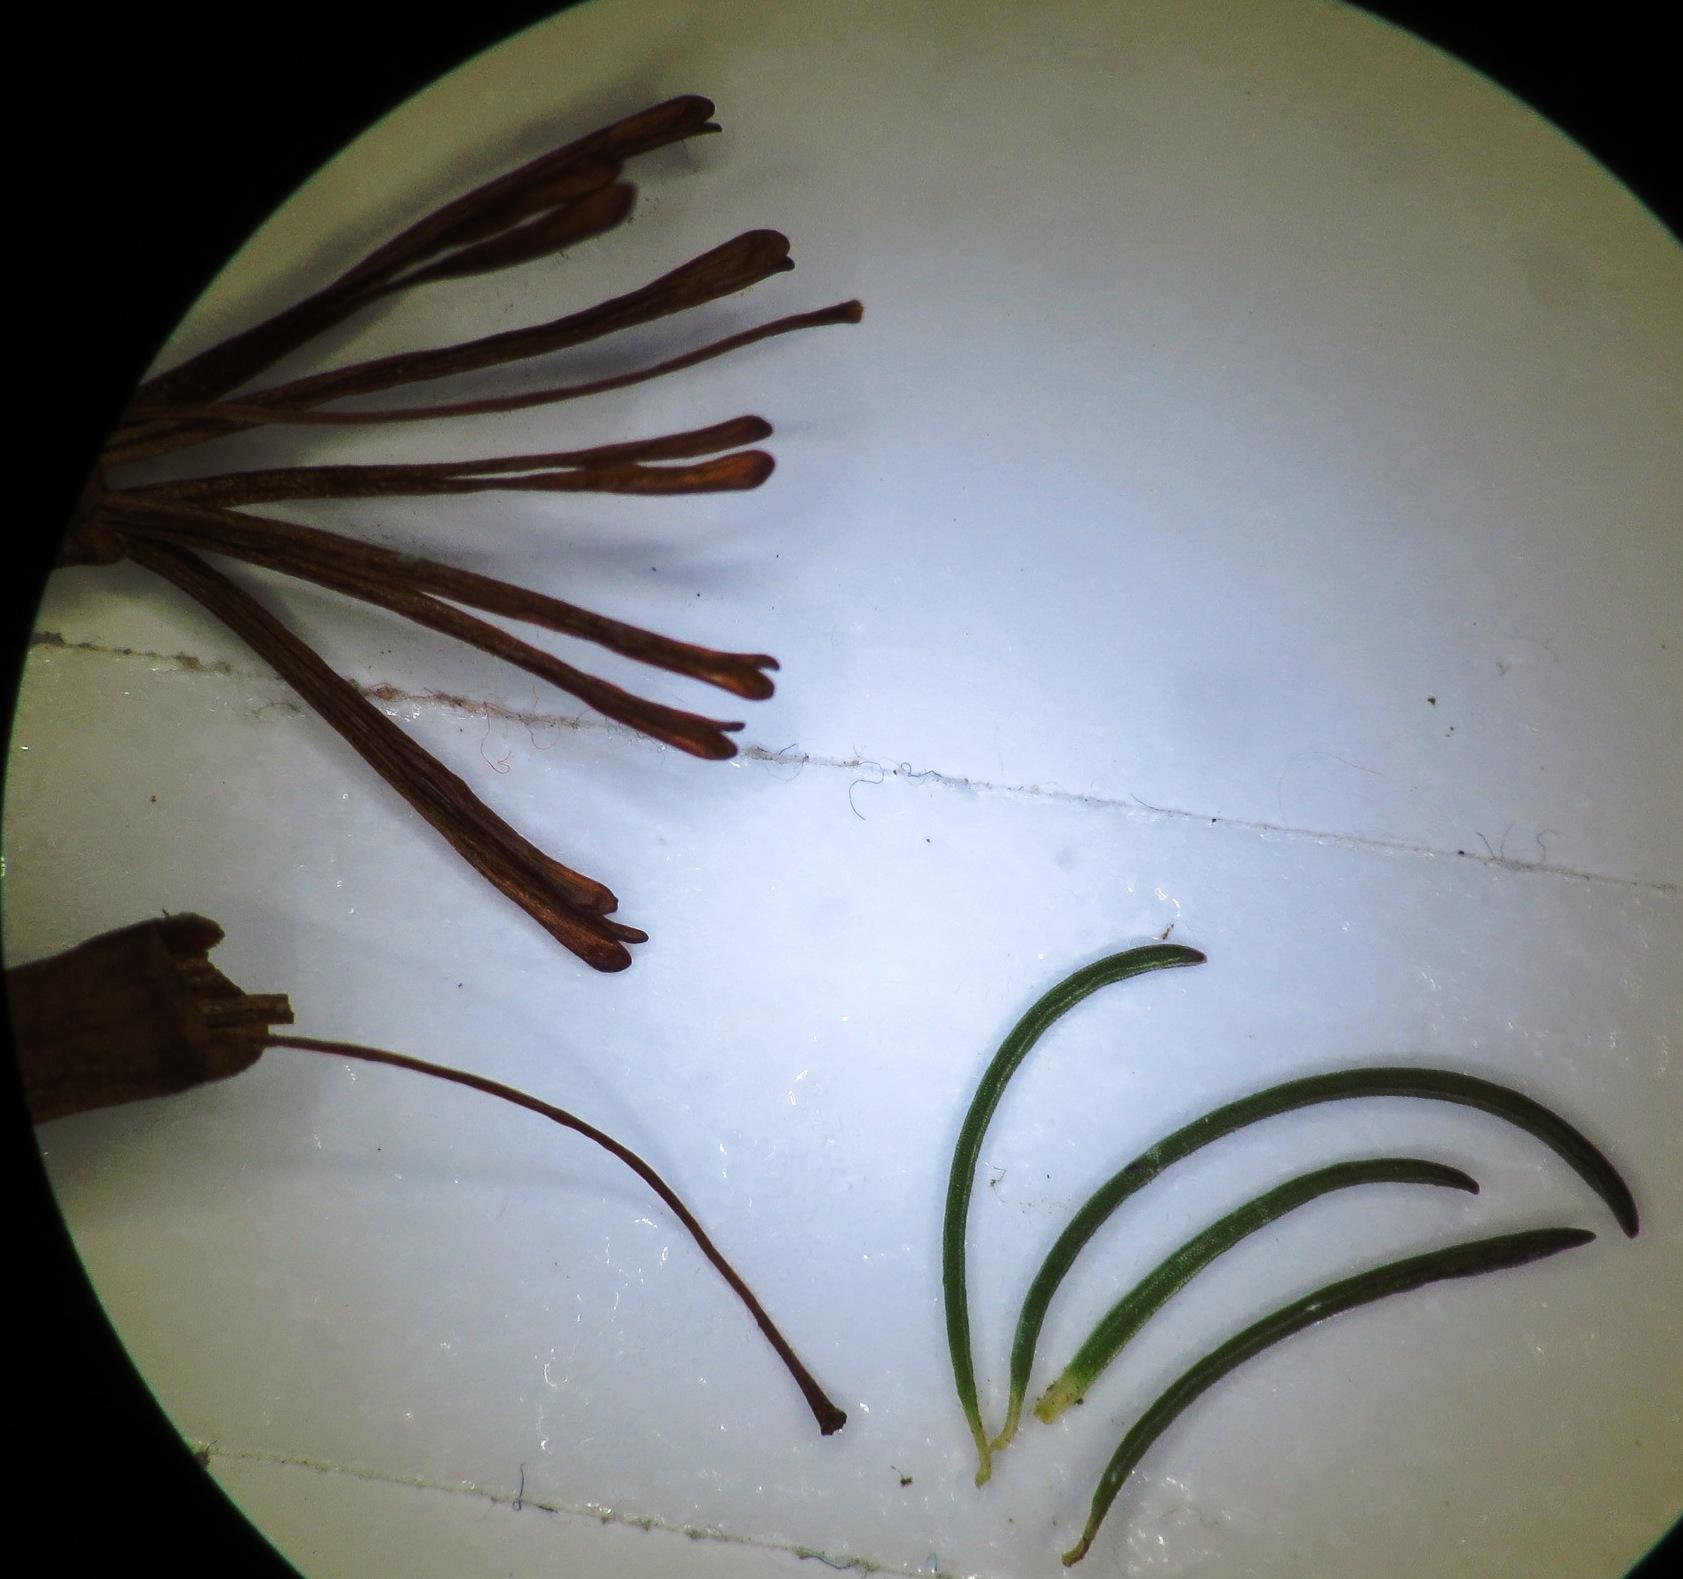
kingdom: Plantae
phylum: Tracheophyta
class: Magnoliopsida
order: Ericales
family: Ericaceae
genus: Erica
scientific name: Erica plukenetii
